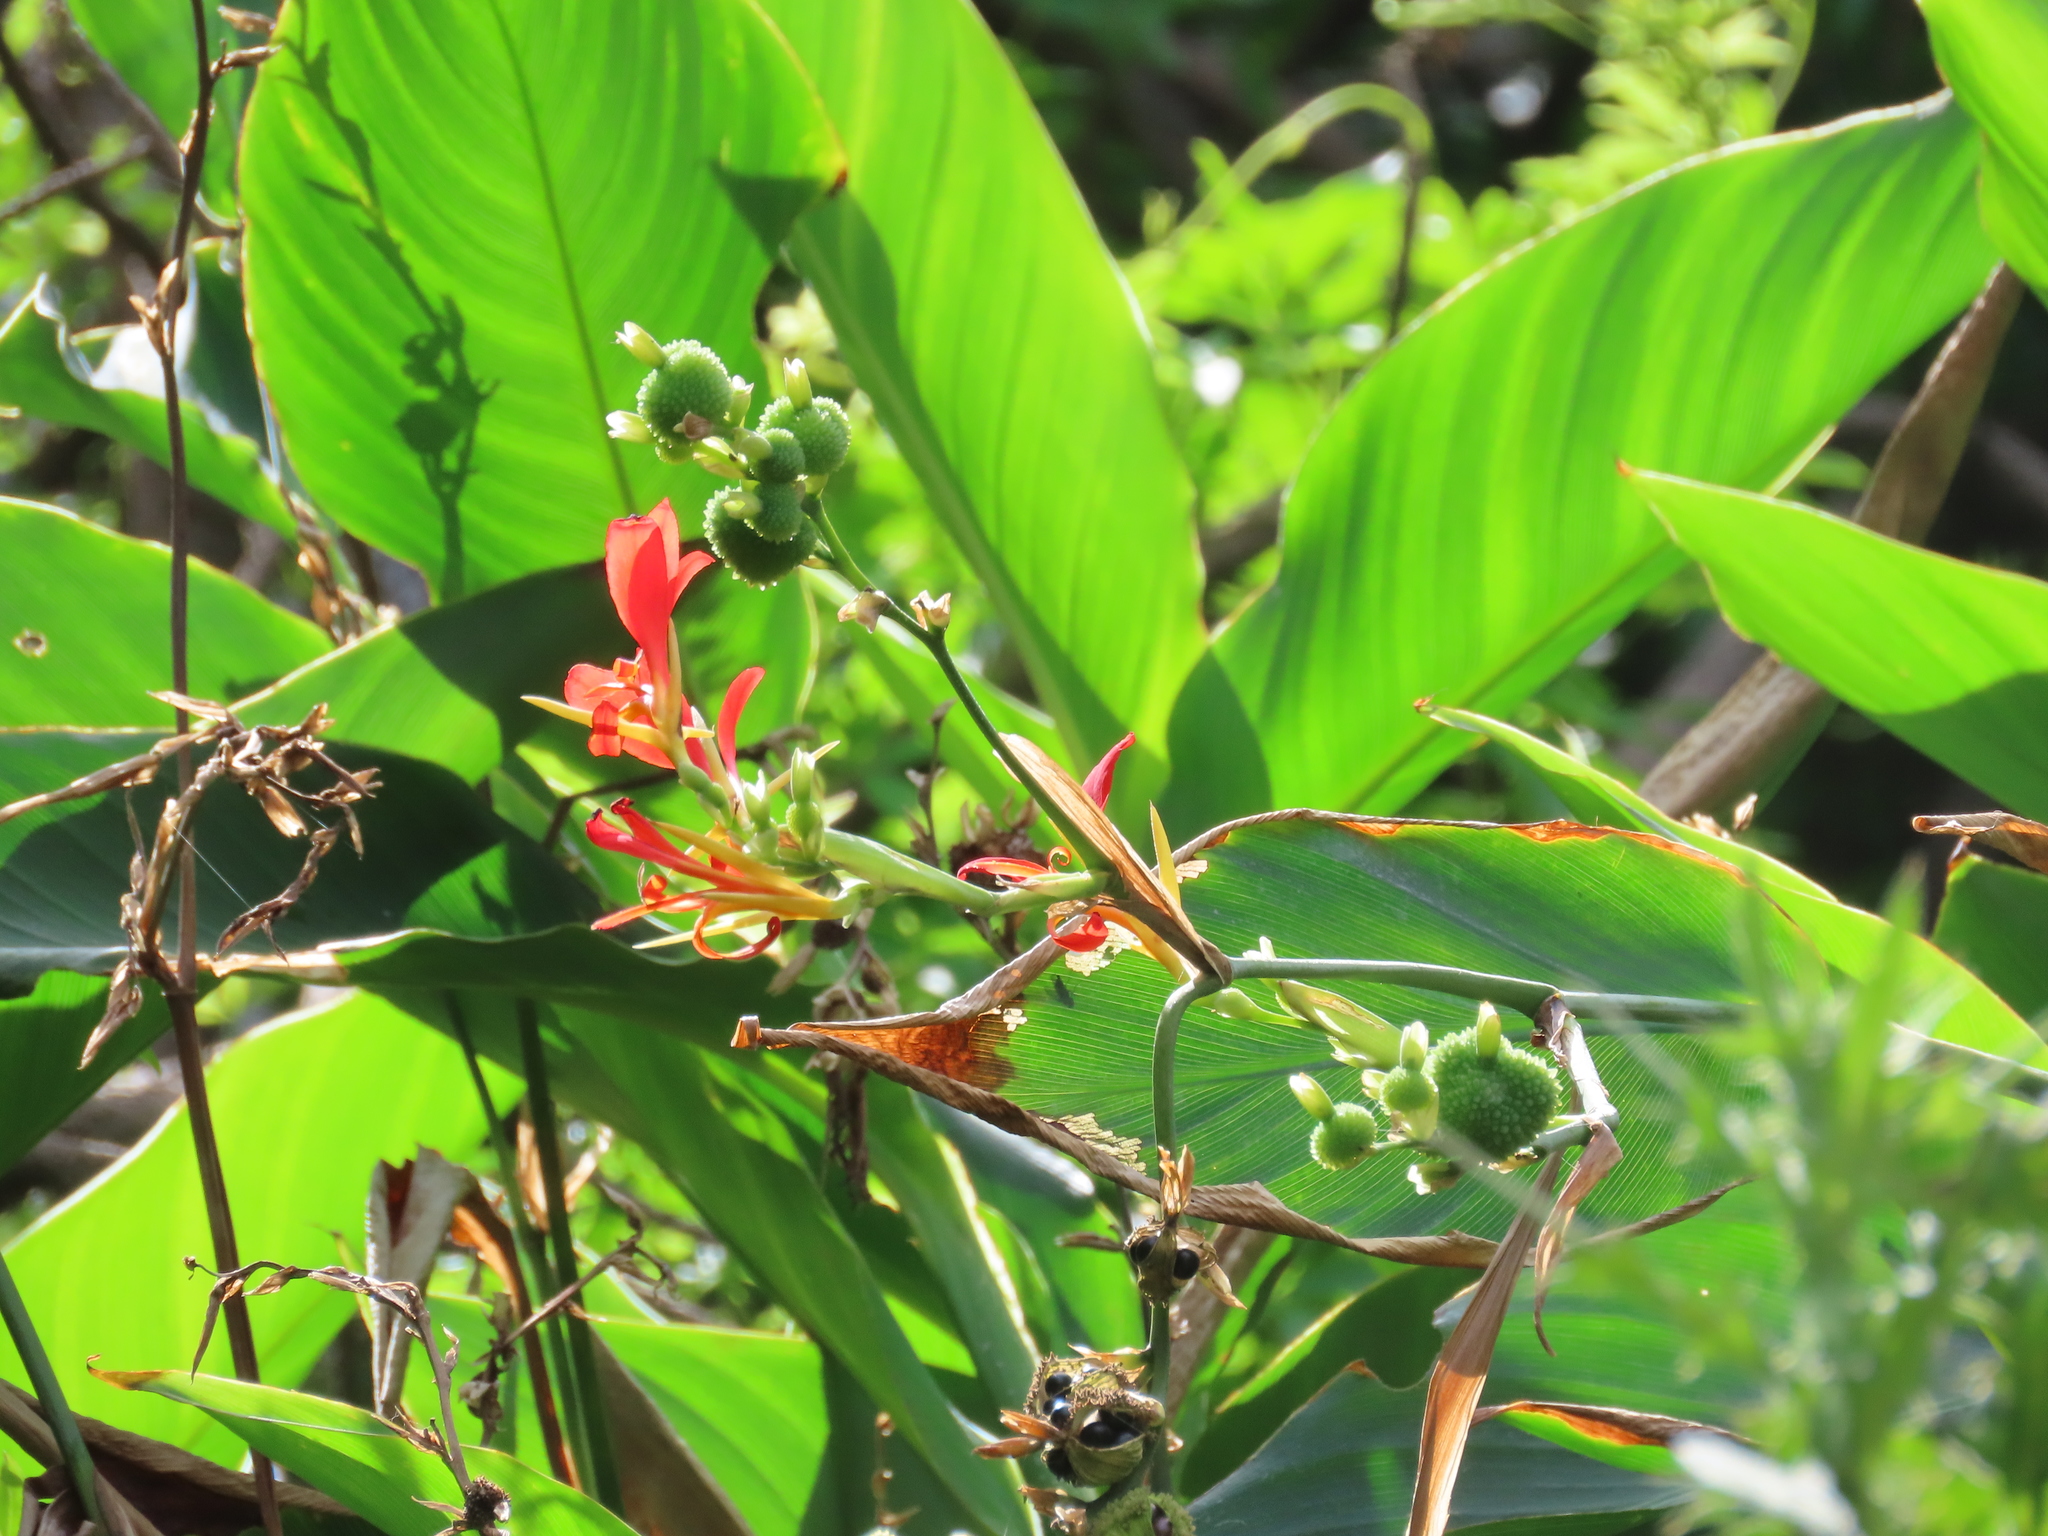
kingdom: Plantae
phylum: Tracheophyta
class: Liliopsida
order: Zingiberales
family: Cannaceae
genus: Canna
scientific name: Canna indica
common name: Indian shot
